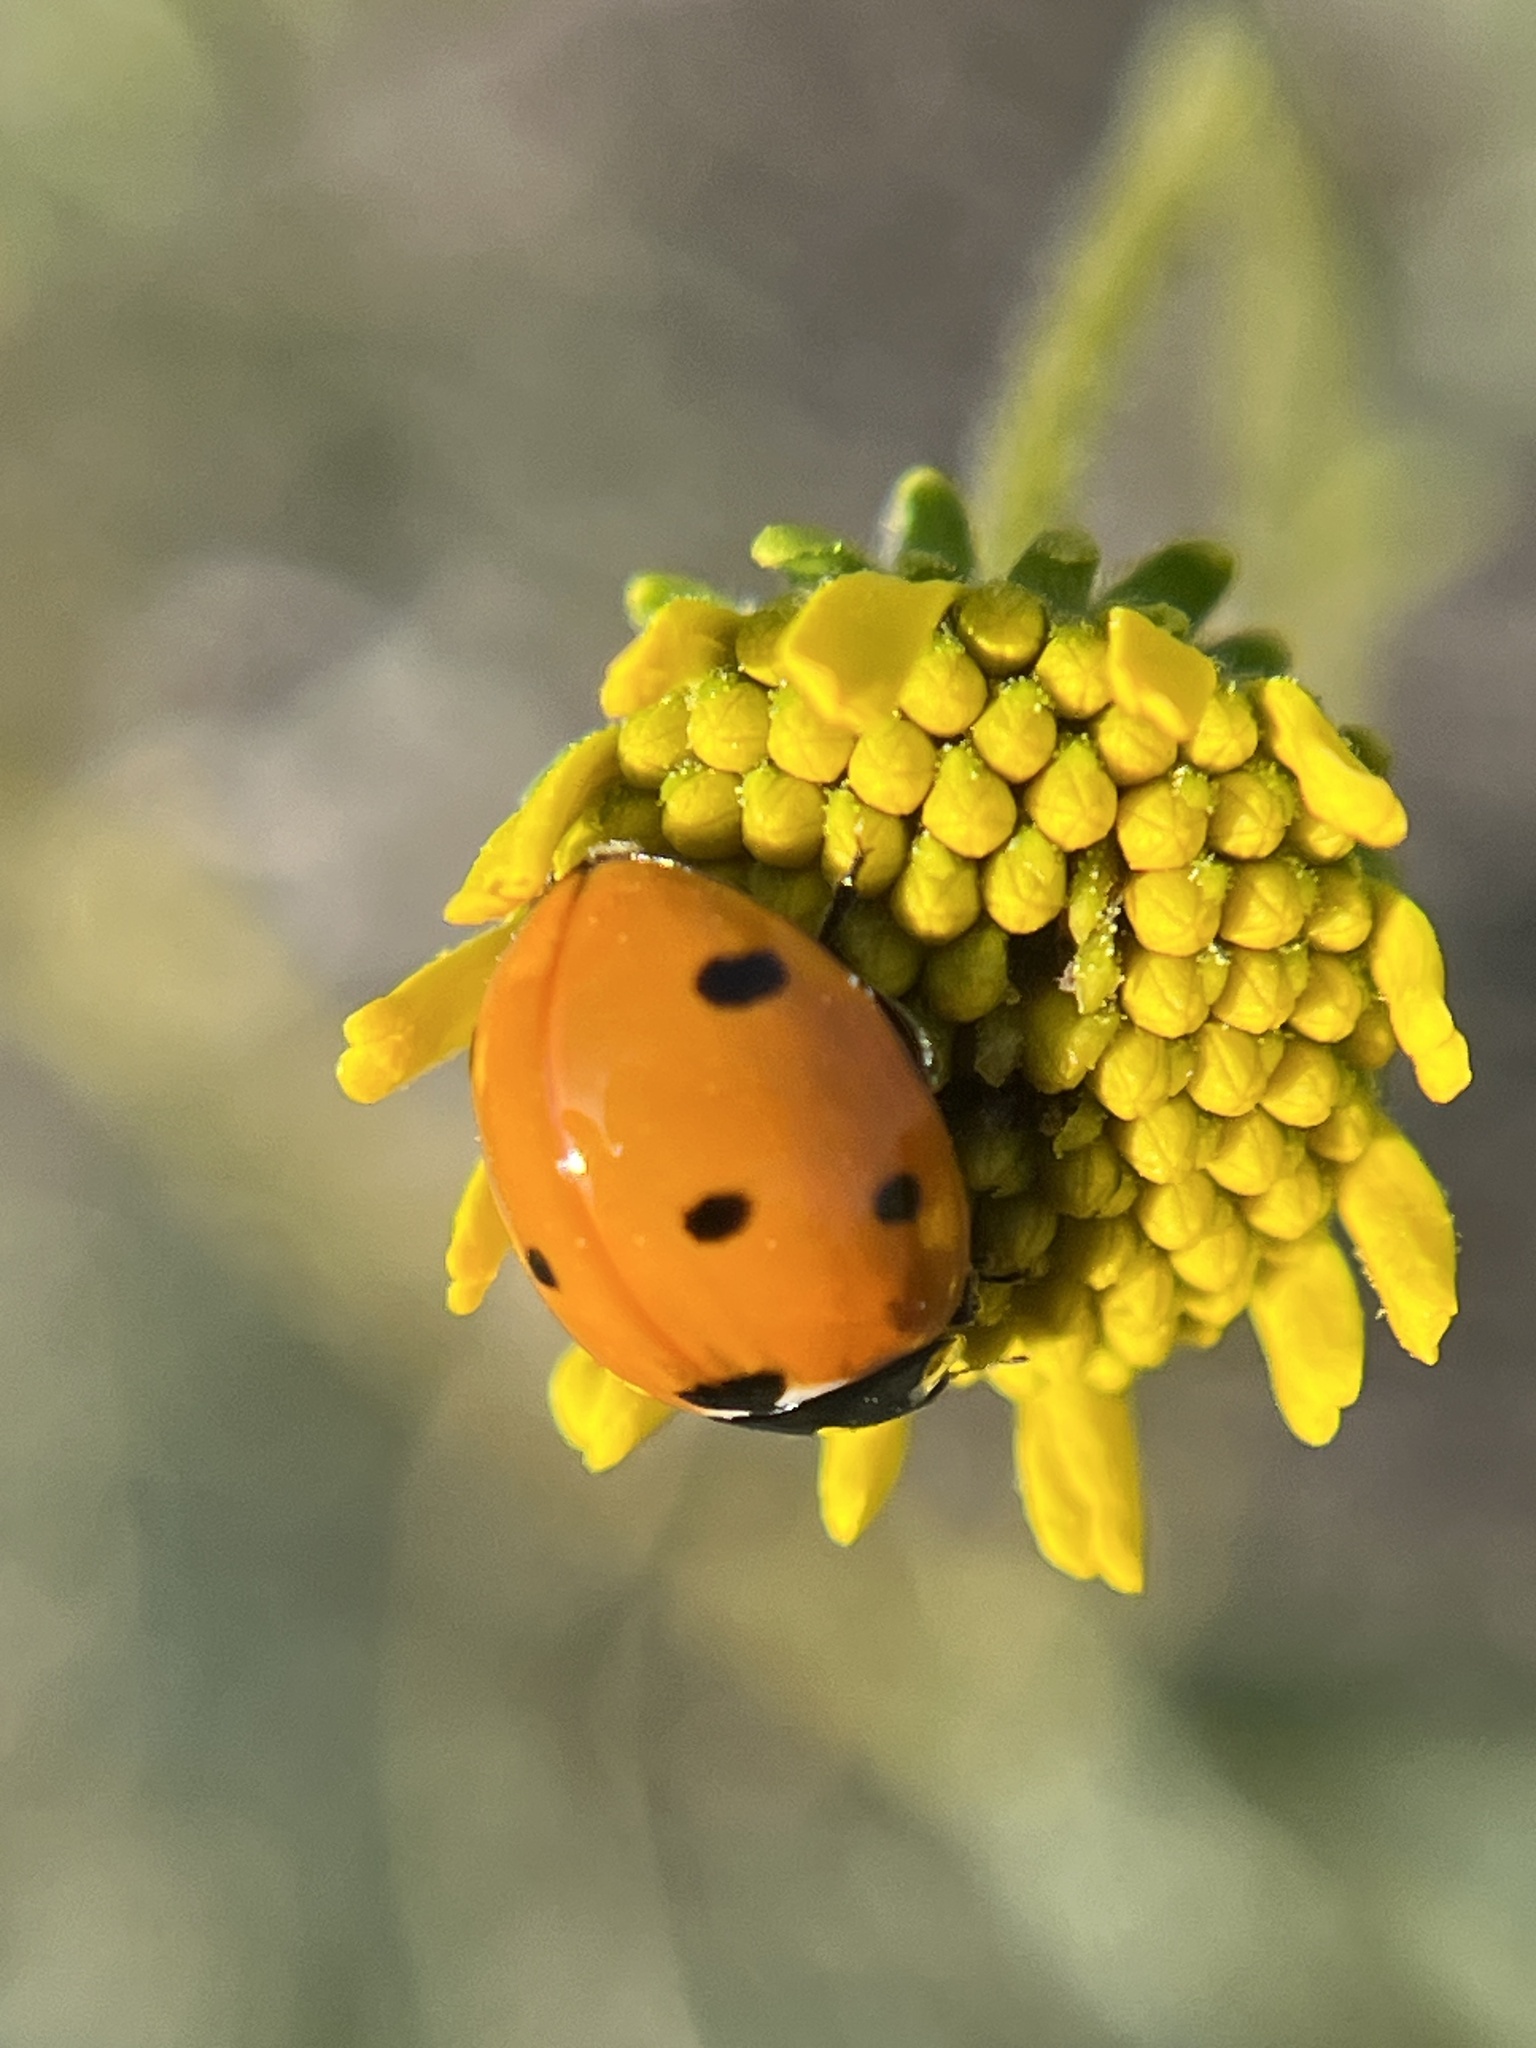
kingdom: Animalia
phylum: Arthropoda
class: Insecta
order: Coleoptera
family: Coccinellidae
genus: Coccinella
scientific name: Coccinella septempunctata
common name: Sevenspotted lady beetle
